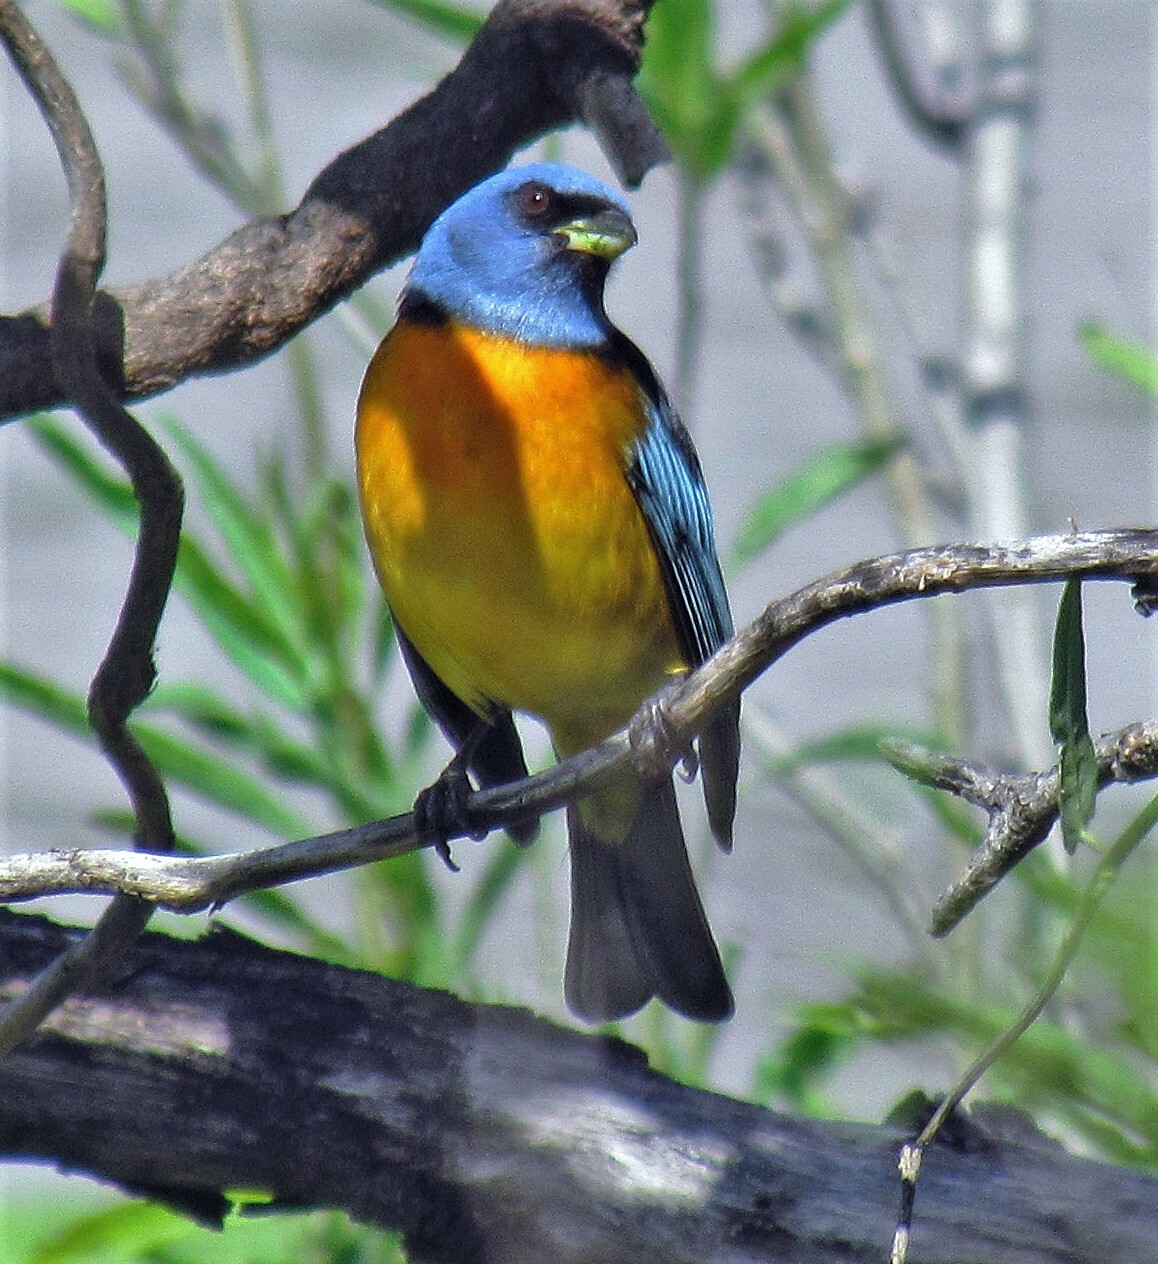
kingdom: Animalia
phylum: Chordata
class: Aves
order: Passeriformes
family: Thraupidae
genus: Rauenia
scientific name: Rauenia bonariensis
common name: Blue-and-yellow tanager
